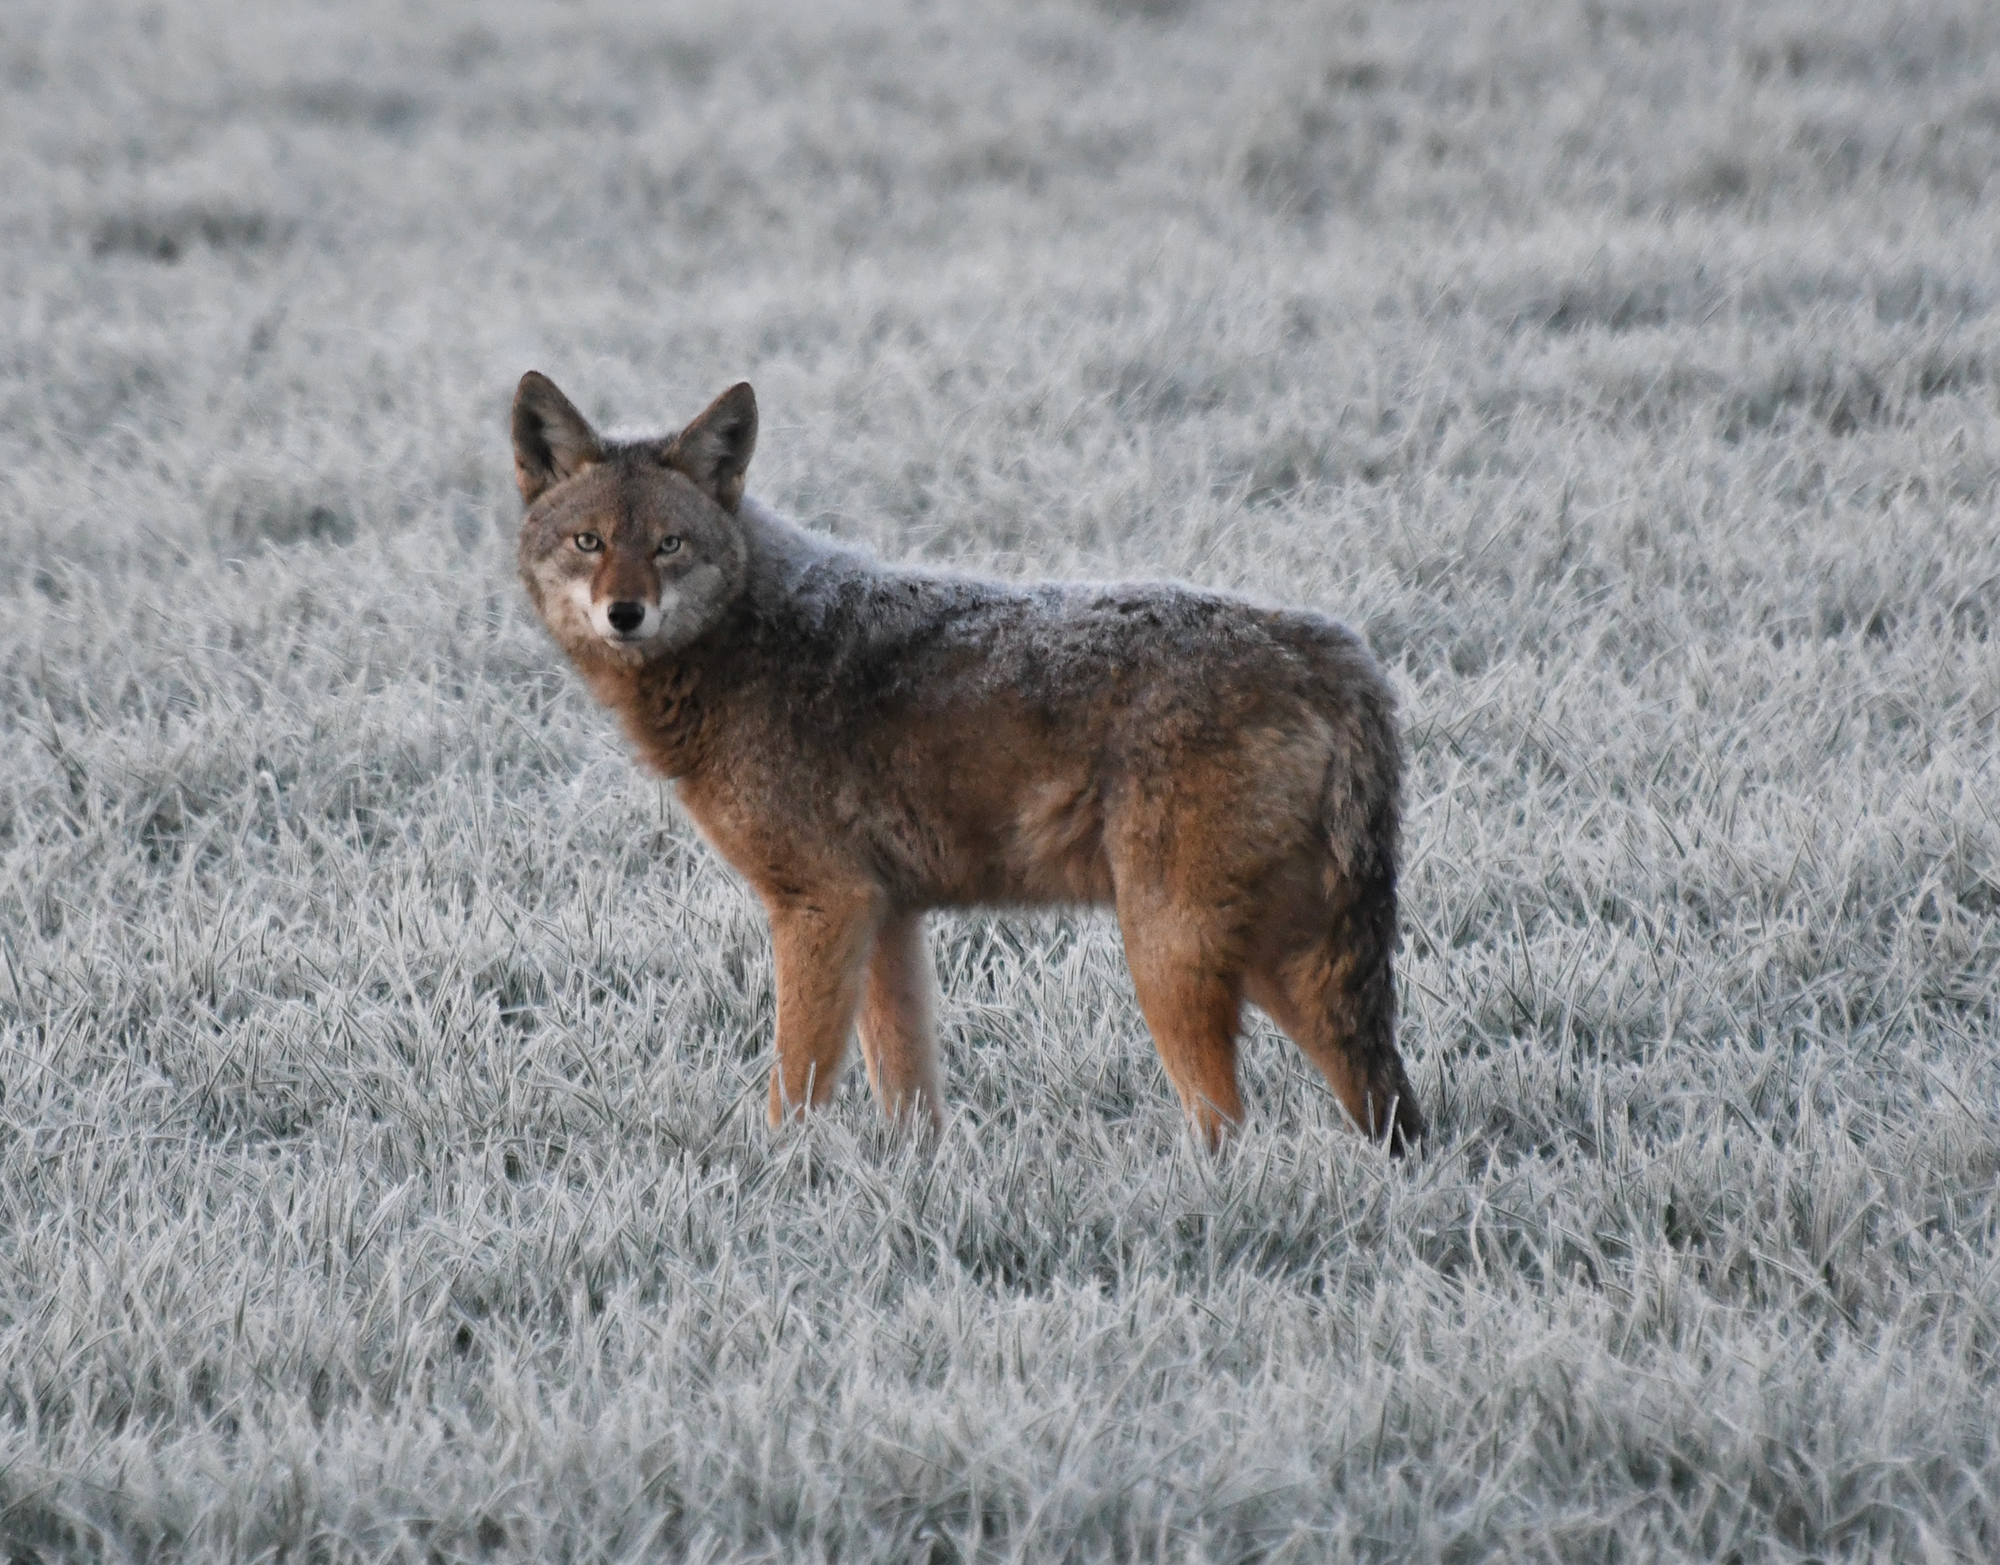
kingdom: Animalia
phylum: Chordata
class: Mammalia
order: Carnivora
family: Canidae
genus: Canis
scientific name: Canis latrans
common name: Coyote
